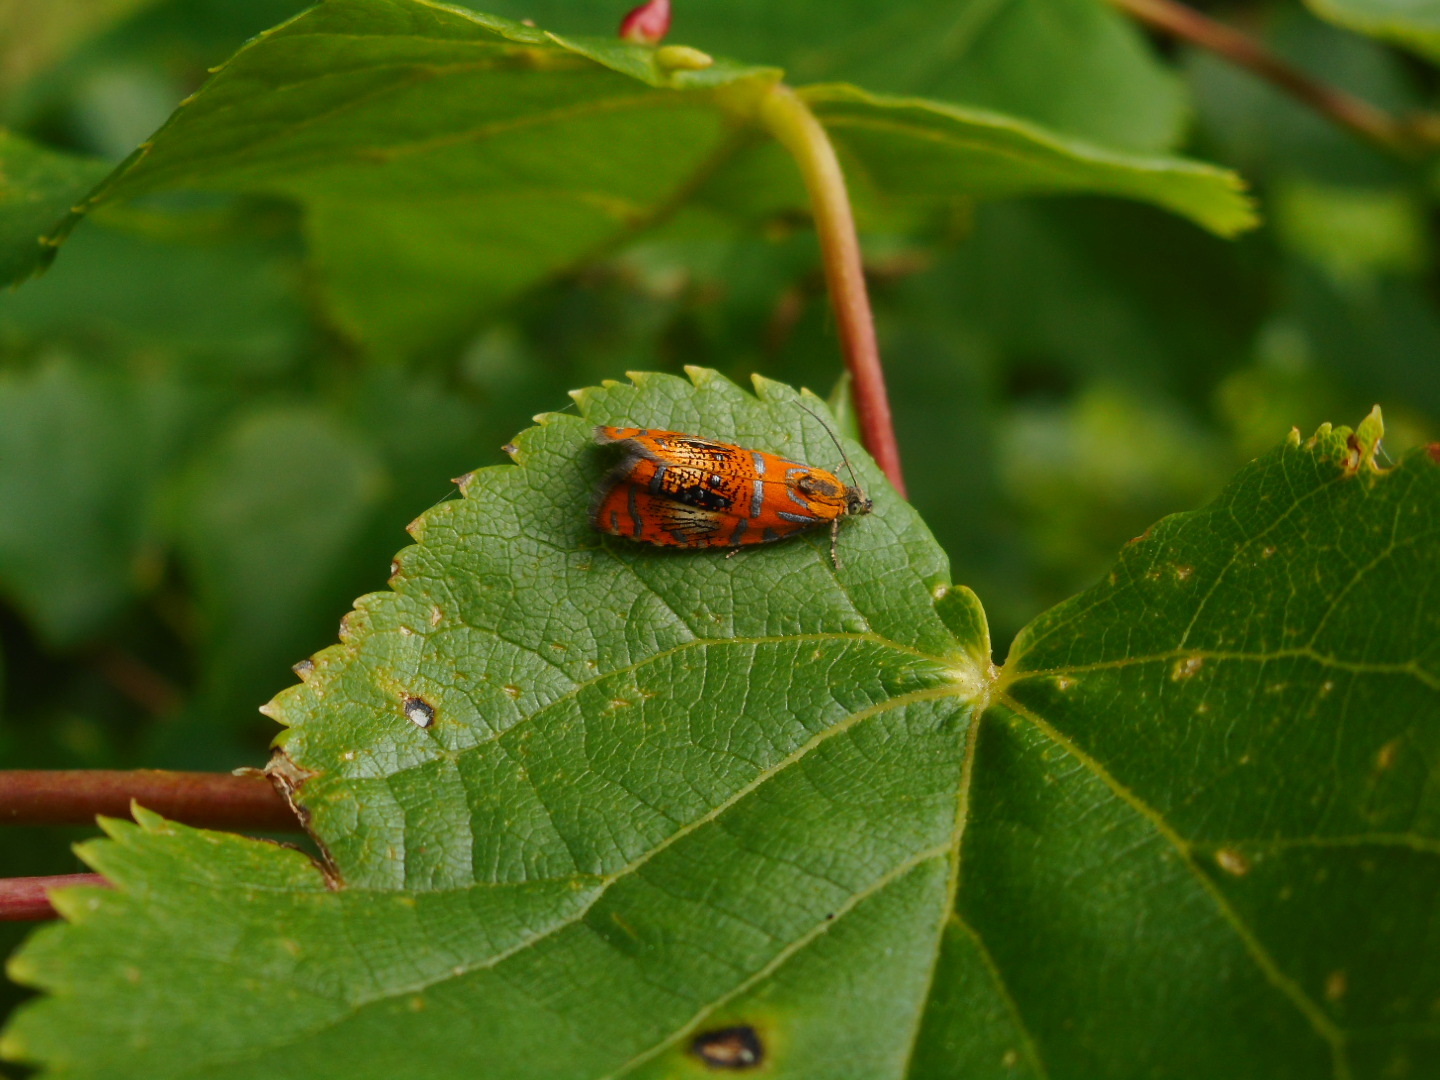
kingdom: Animalia
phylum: Arthropoda
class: Insecta
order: Lepidoptera
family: Tortricidae
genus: Olethreutes
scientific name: Olethreutes arcuella
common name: Arched marble
